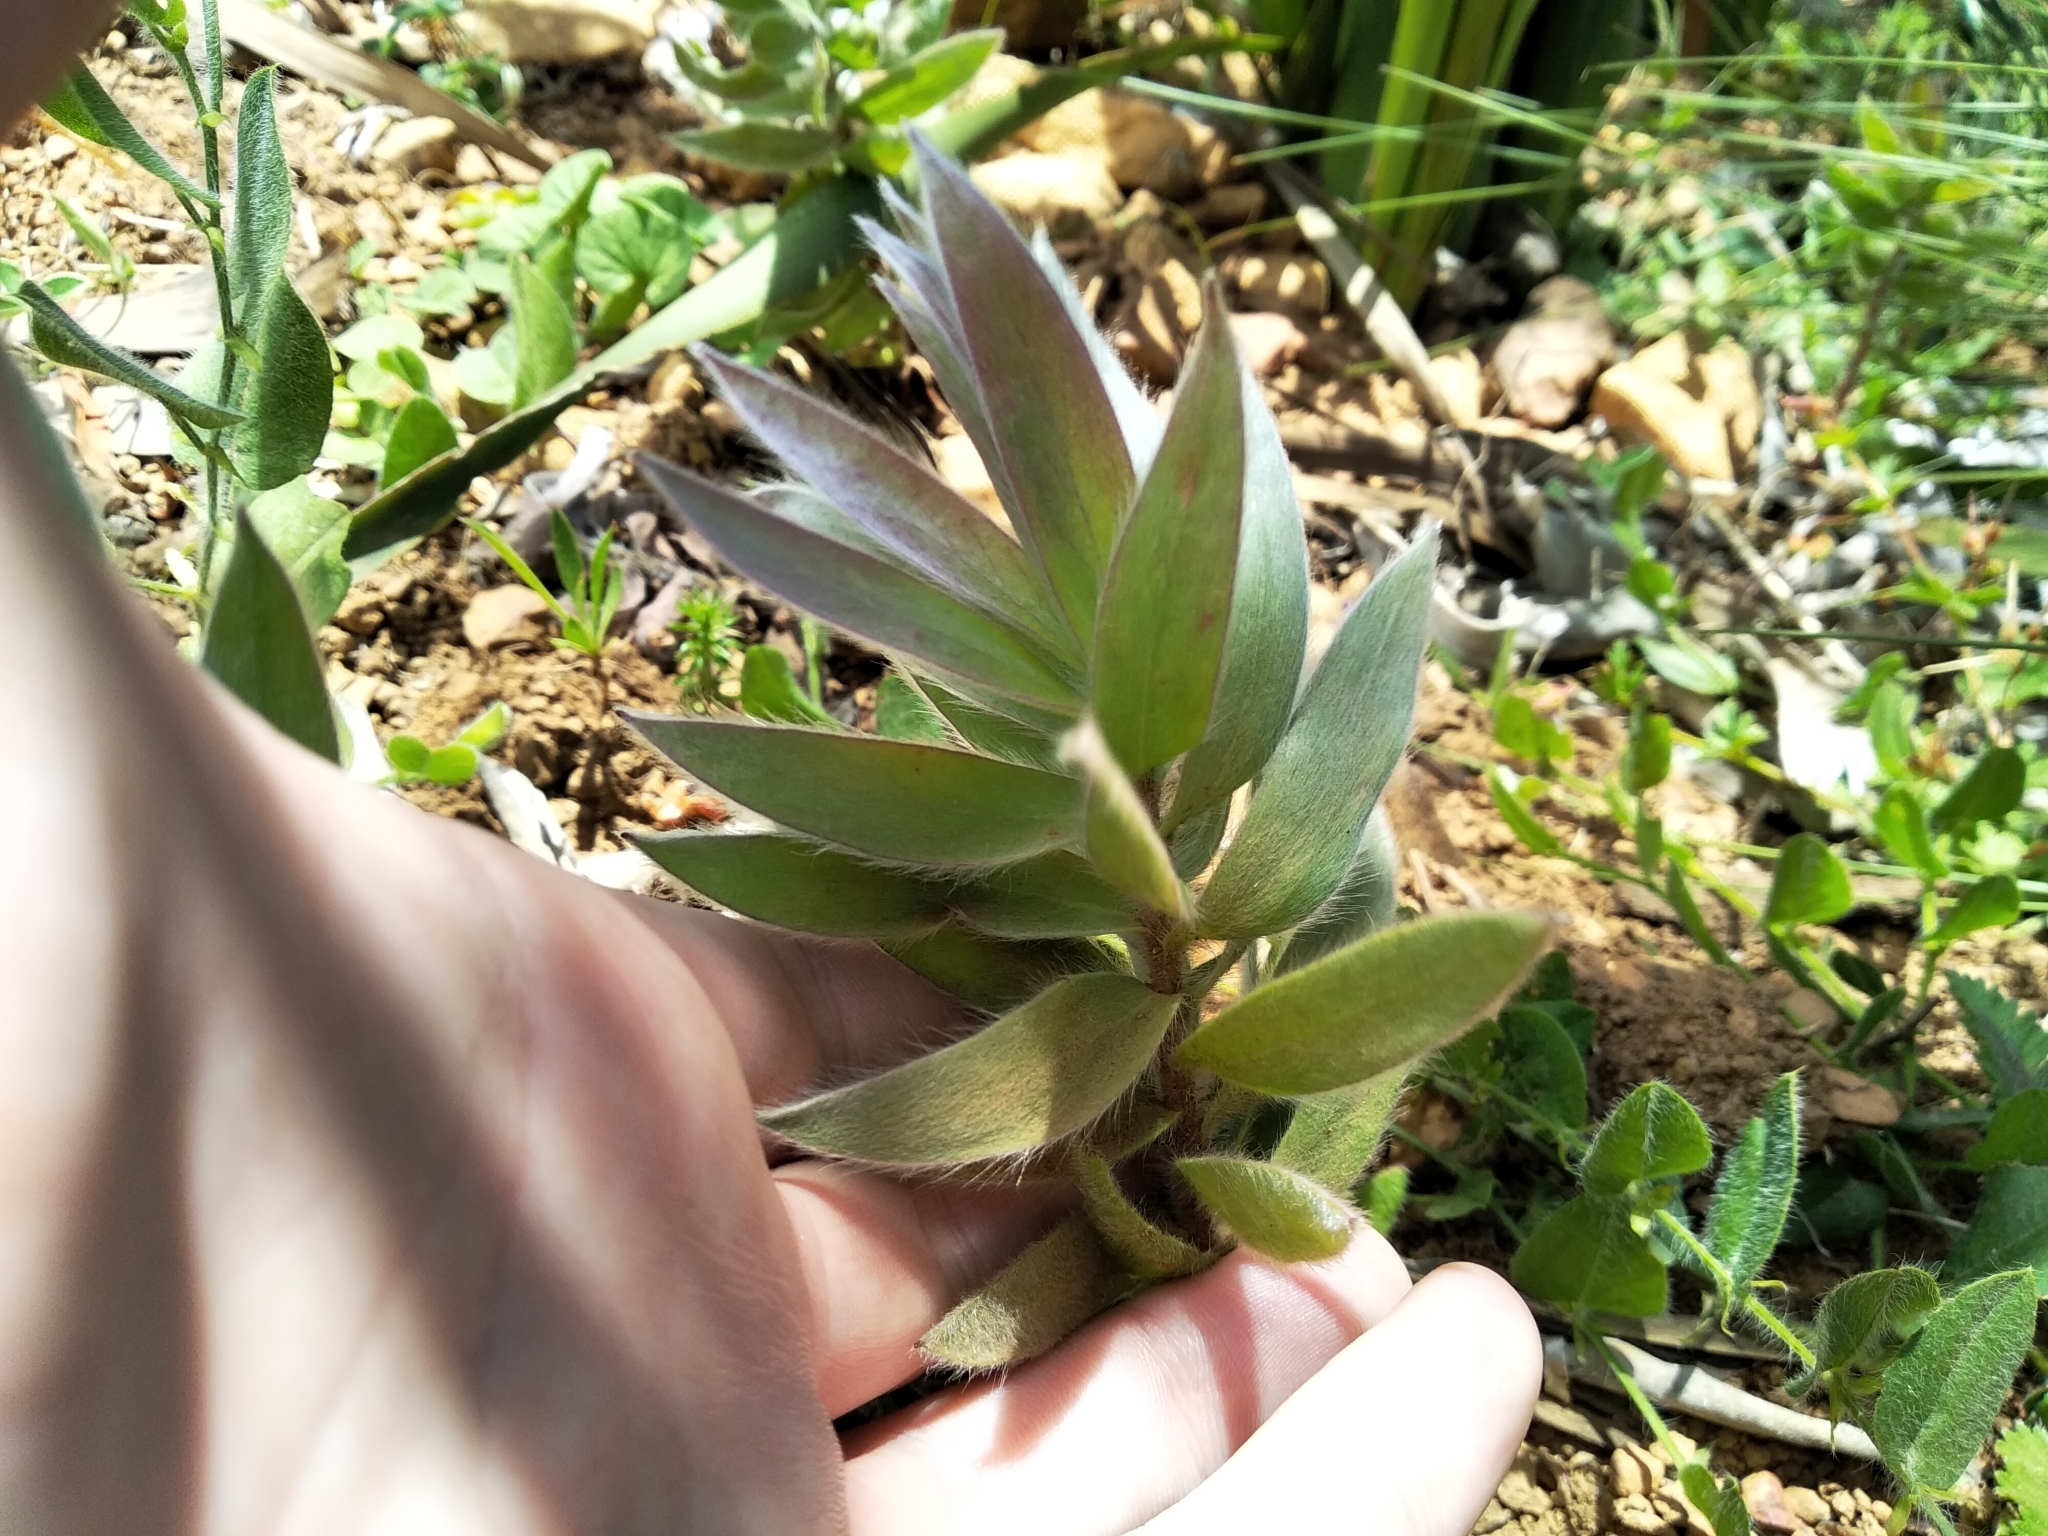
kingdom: Plantae
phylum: Tracheophyta
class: Magnoliopsida
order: Proteales
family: Proteaceae
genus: Leucadendron
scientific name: Leucadendron argenteum
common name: Cape silver tree
